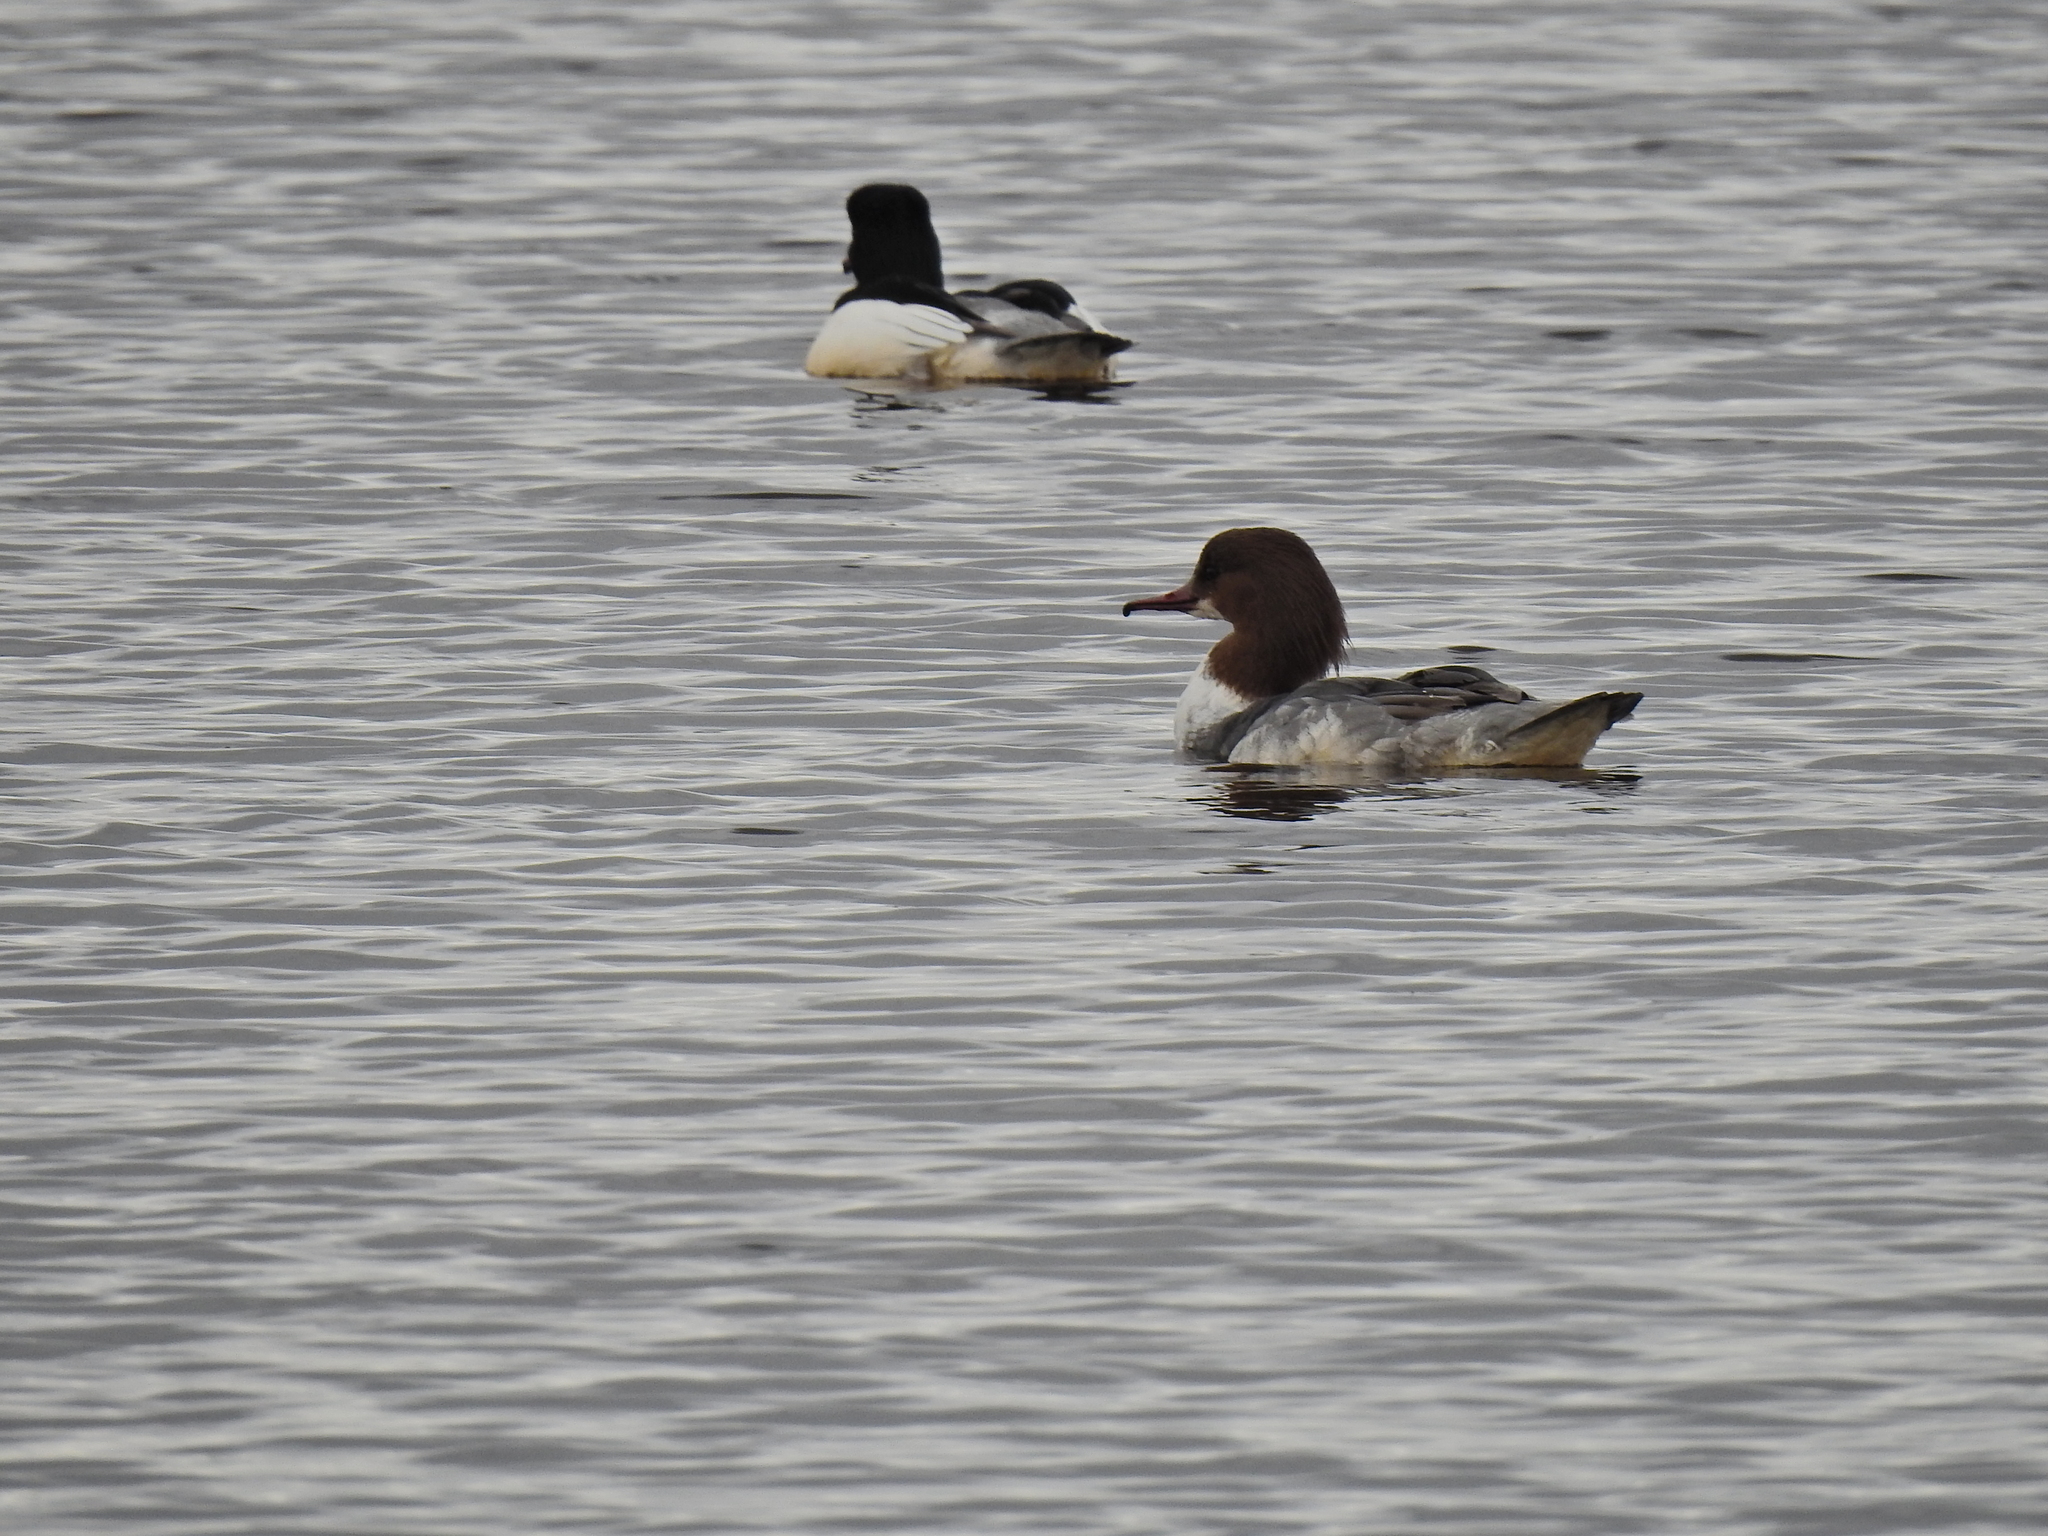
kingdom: Animalia
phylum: Chordata
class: Aves
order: Anseriformes
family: Anatidae
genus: Mergus
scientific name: Mergus merganser
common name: Common merganser
